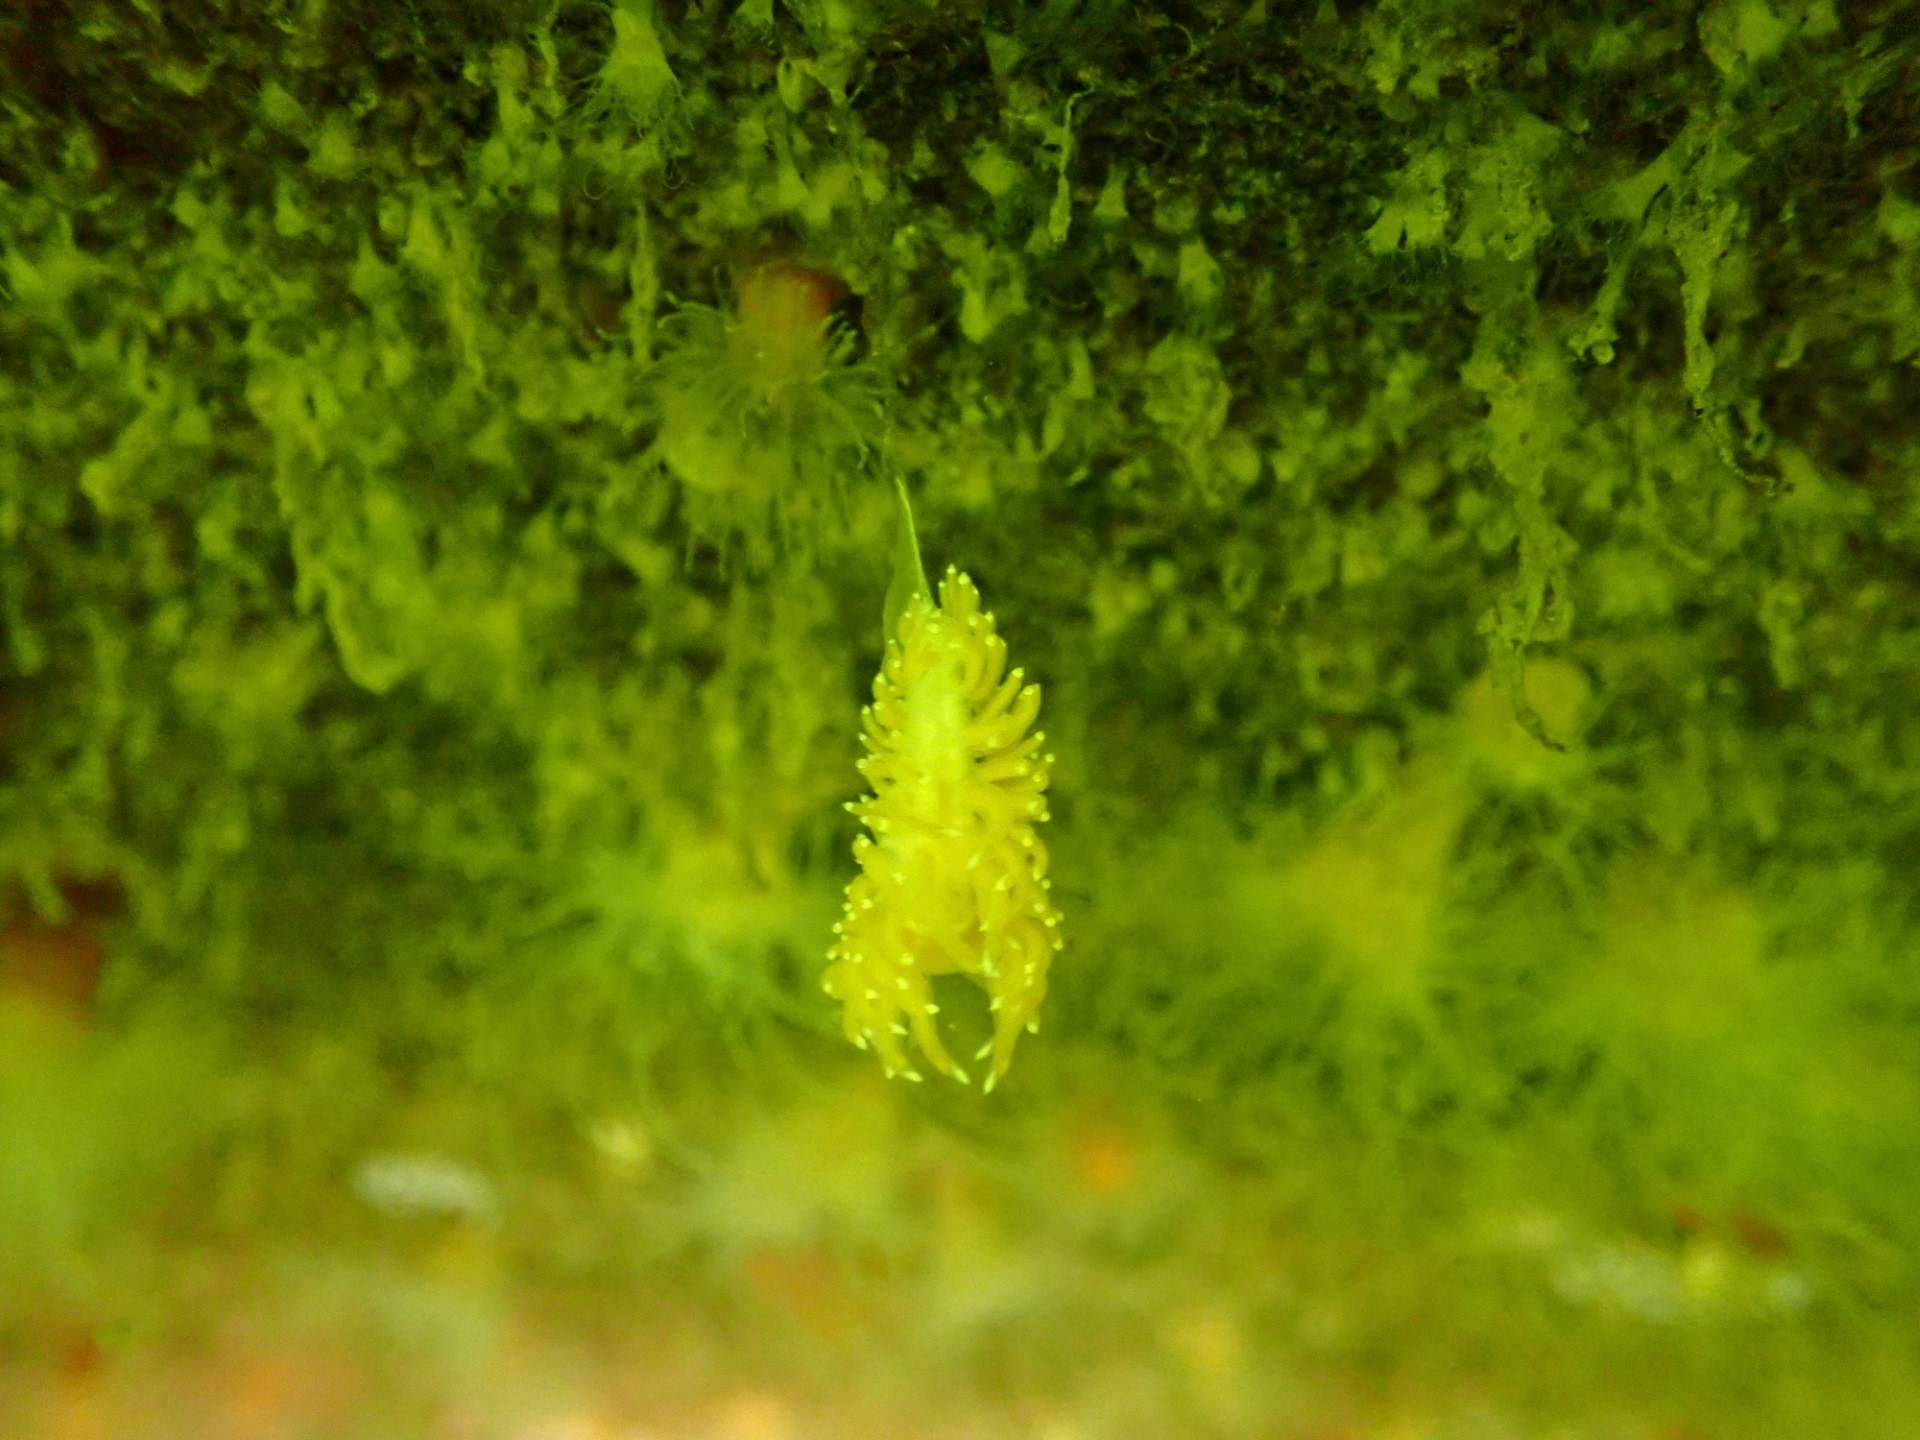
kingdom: Animalia
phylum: Mollusca
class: Gastropoda
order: Nudibranchia
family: Facelinidae
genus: Facelina
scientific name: Facelina bostoniensis
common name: Boston facelina
